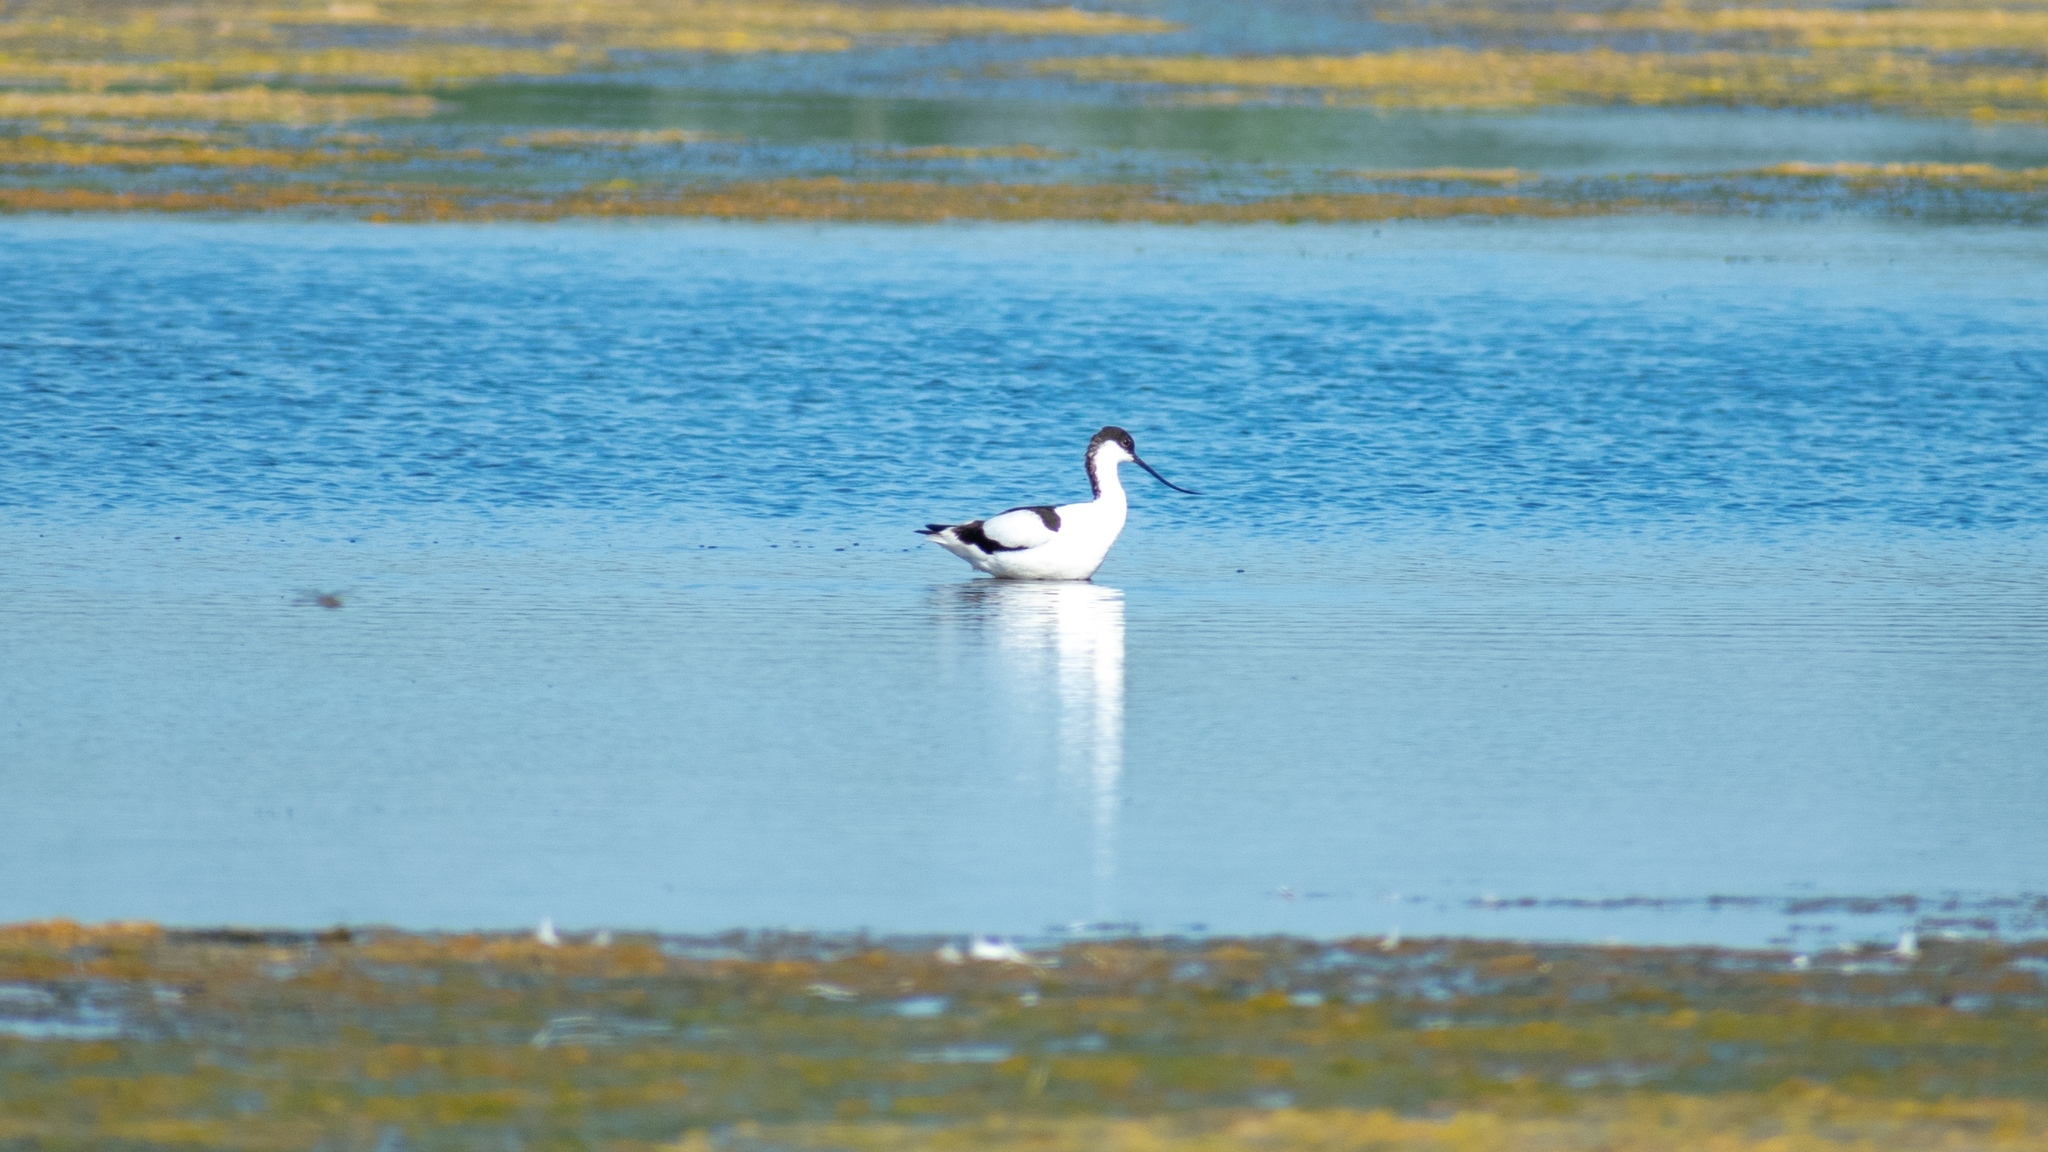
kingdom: Animalia
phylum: Chordata
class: Aves
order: Charadriiformes
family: Recurvirostridae
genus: Recurvirostra
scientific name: Recurvirostra avosetta
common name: Pied avocet
